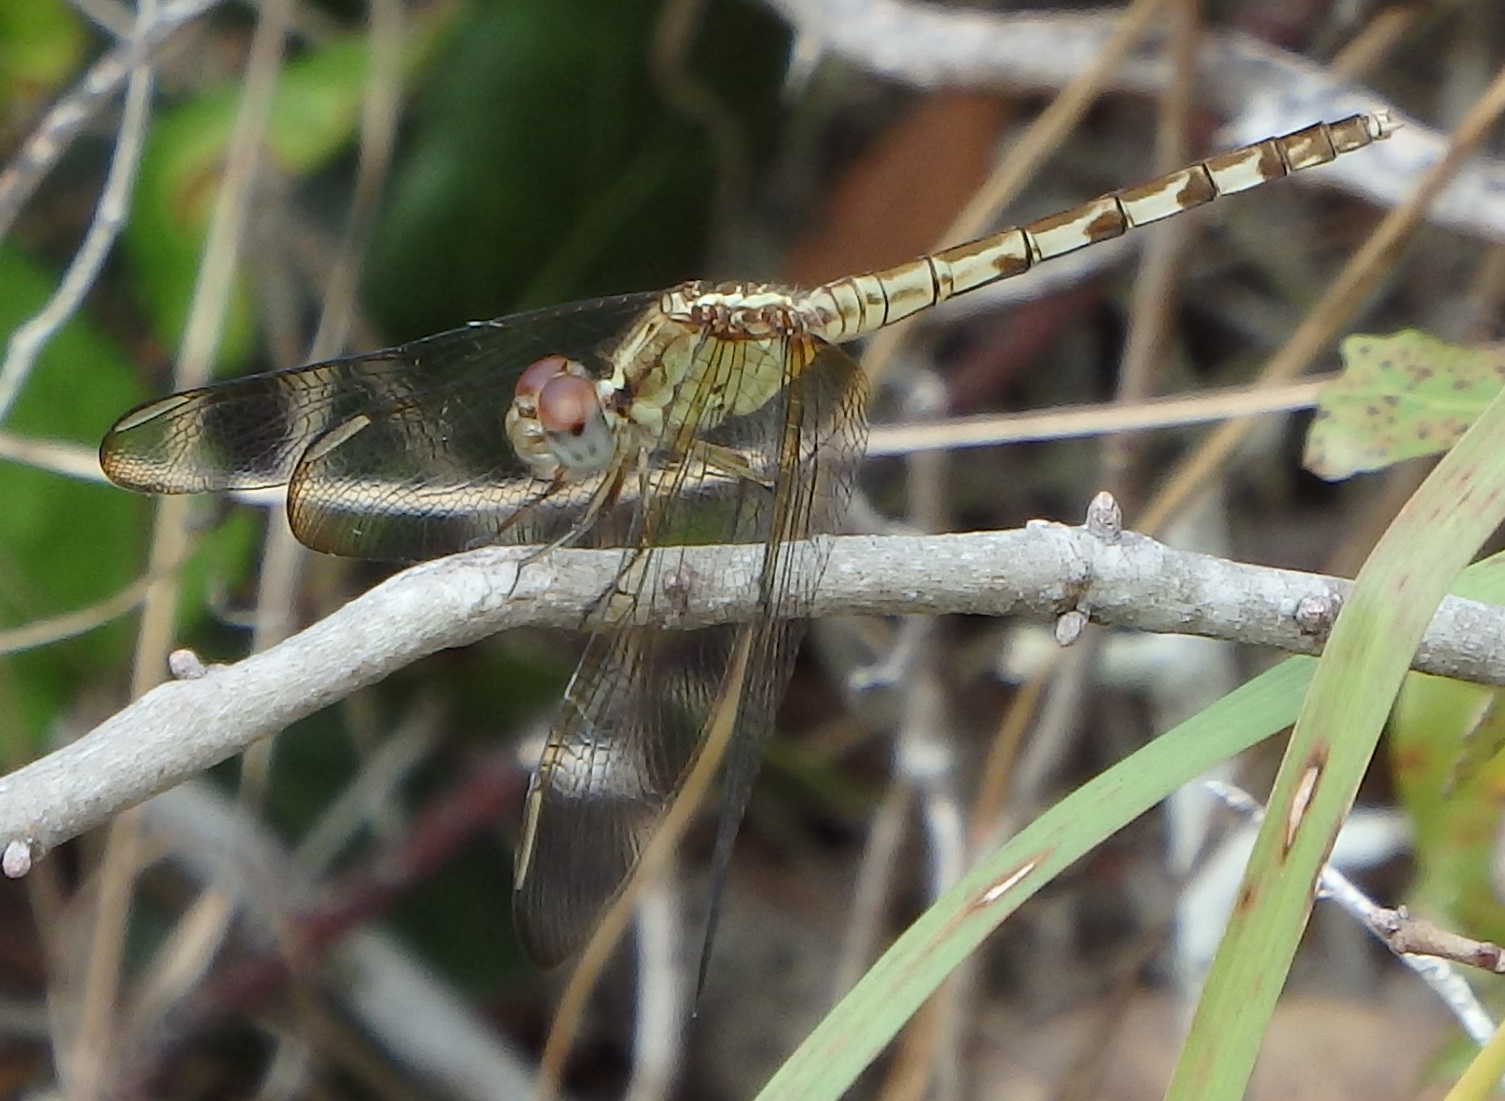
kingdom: Animalia
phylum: Arthropoda
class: Insecta
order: Odonata
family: Libellulidae
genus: Erythrodiplax
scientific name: Erythrodiplax umbrata
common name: Band-winged dragonlet
